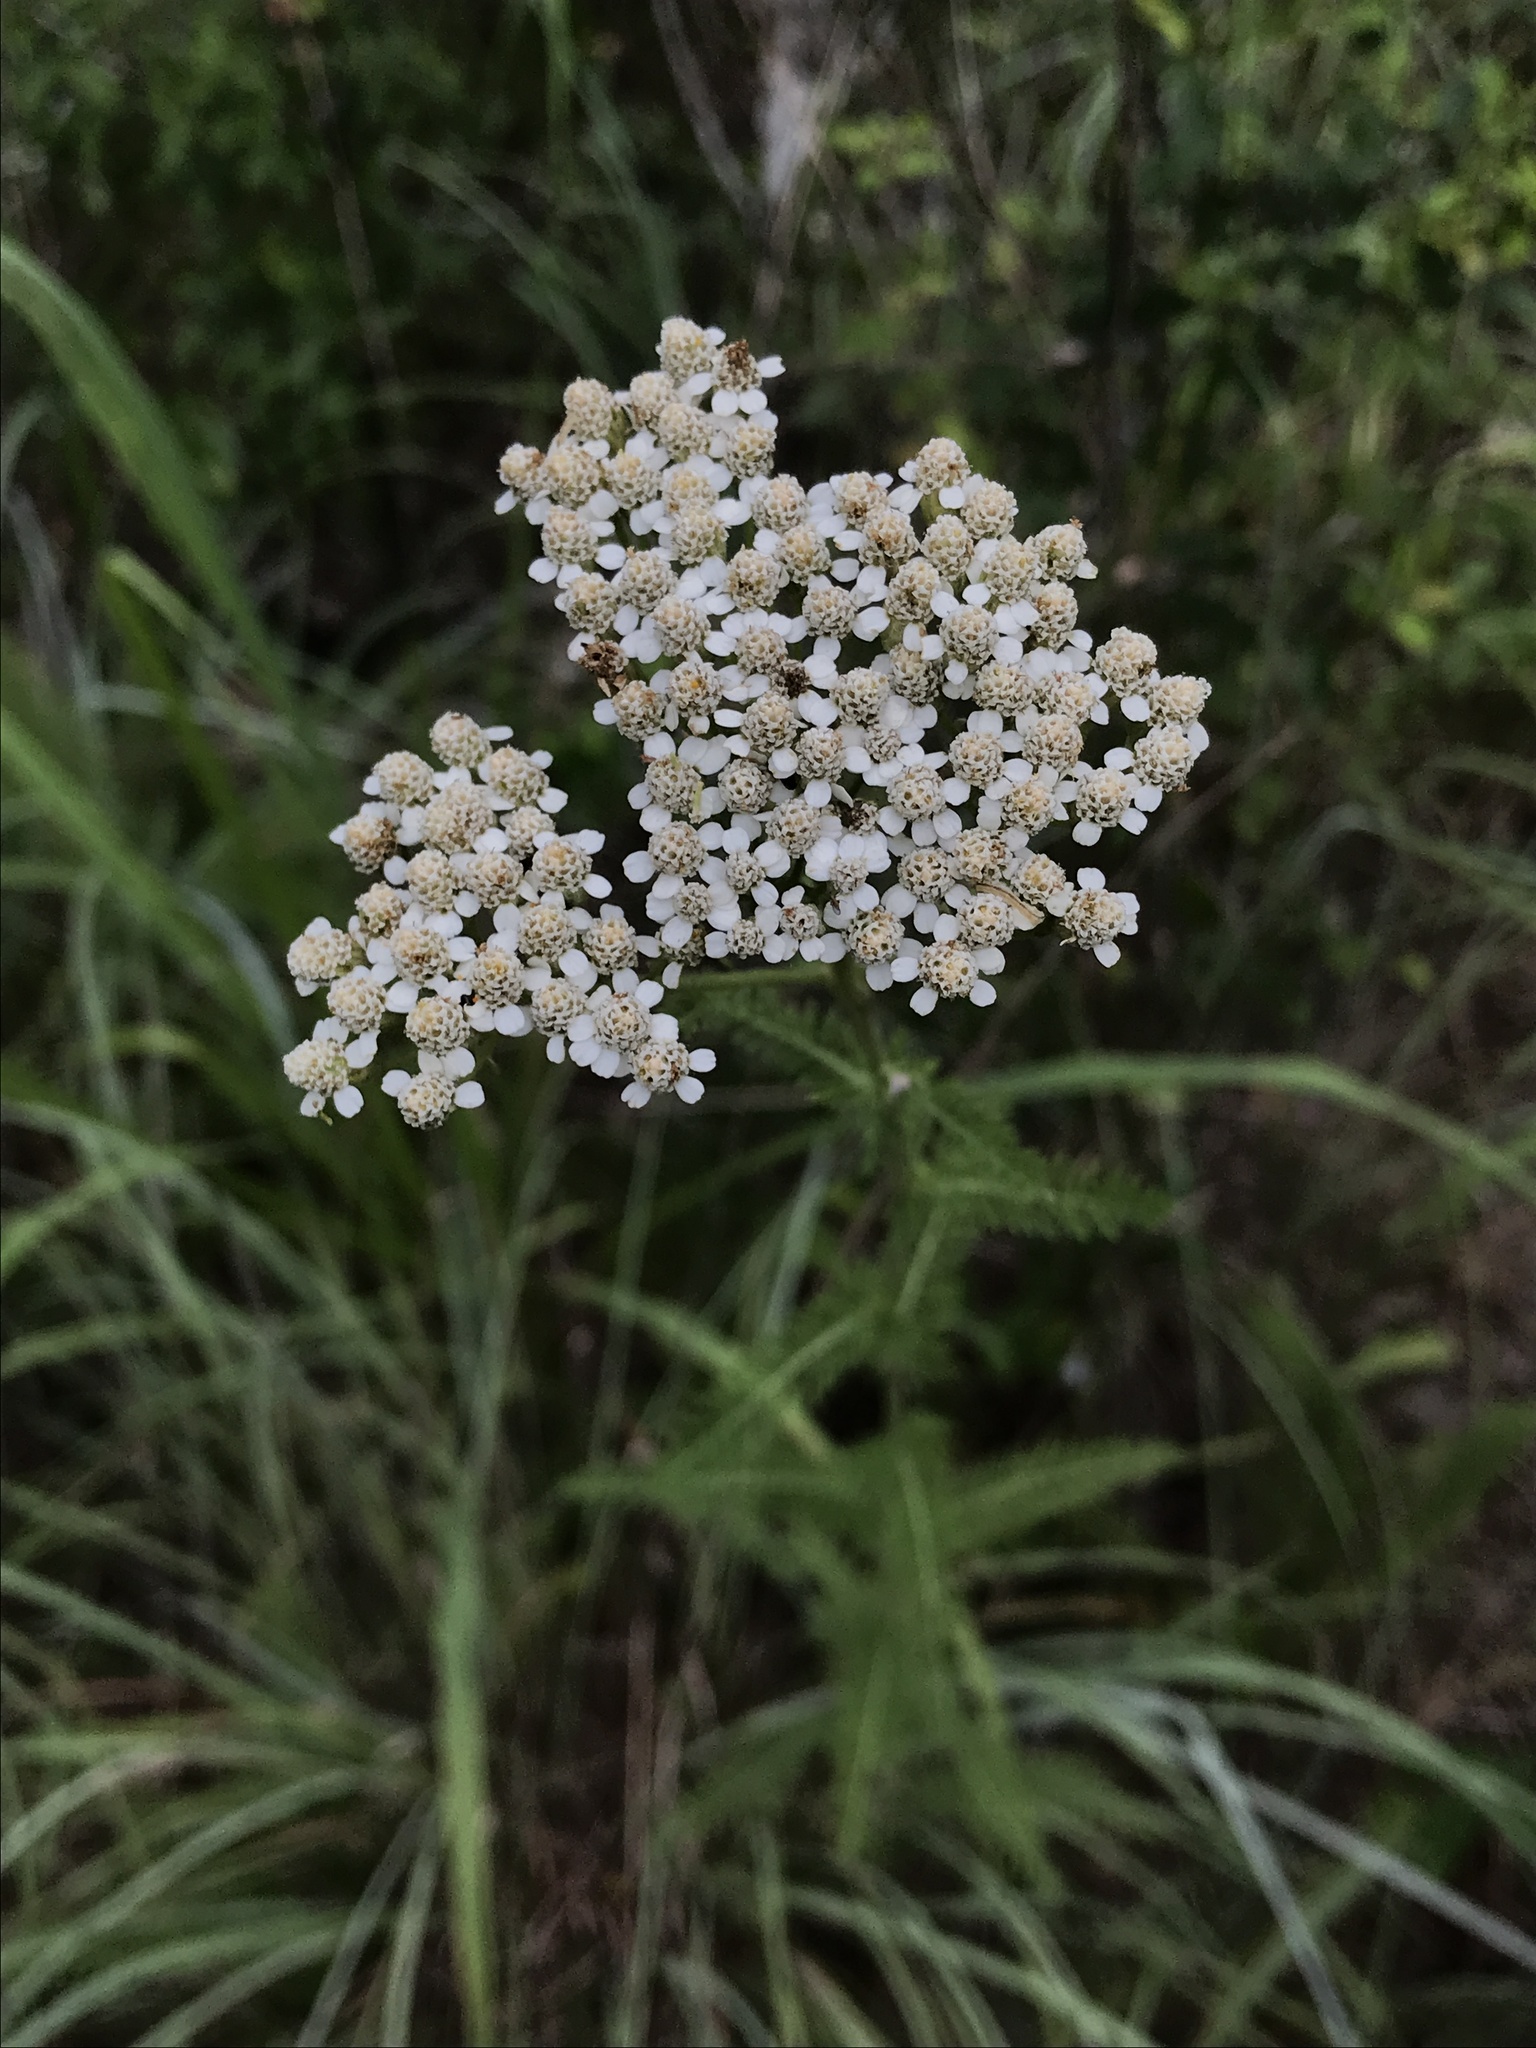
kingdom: Plantae
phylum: Tracheophyta
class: Magnoliopsida
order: Asterales
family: Asteraceae
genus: Achillea
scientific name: Achillea millefolium
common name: Yarrow
